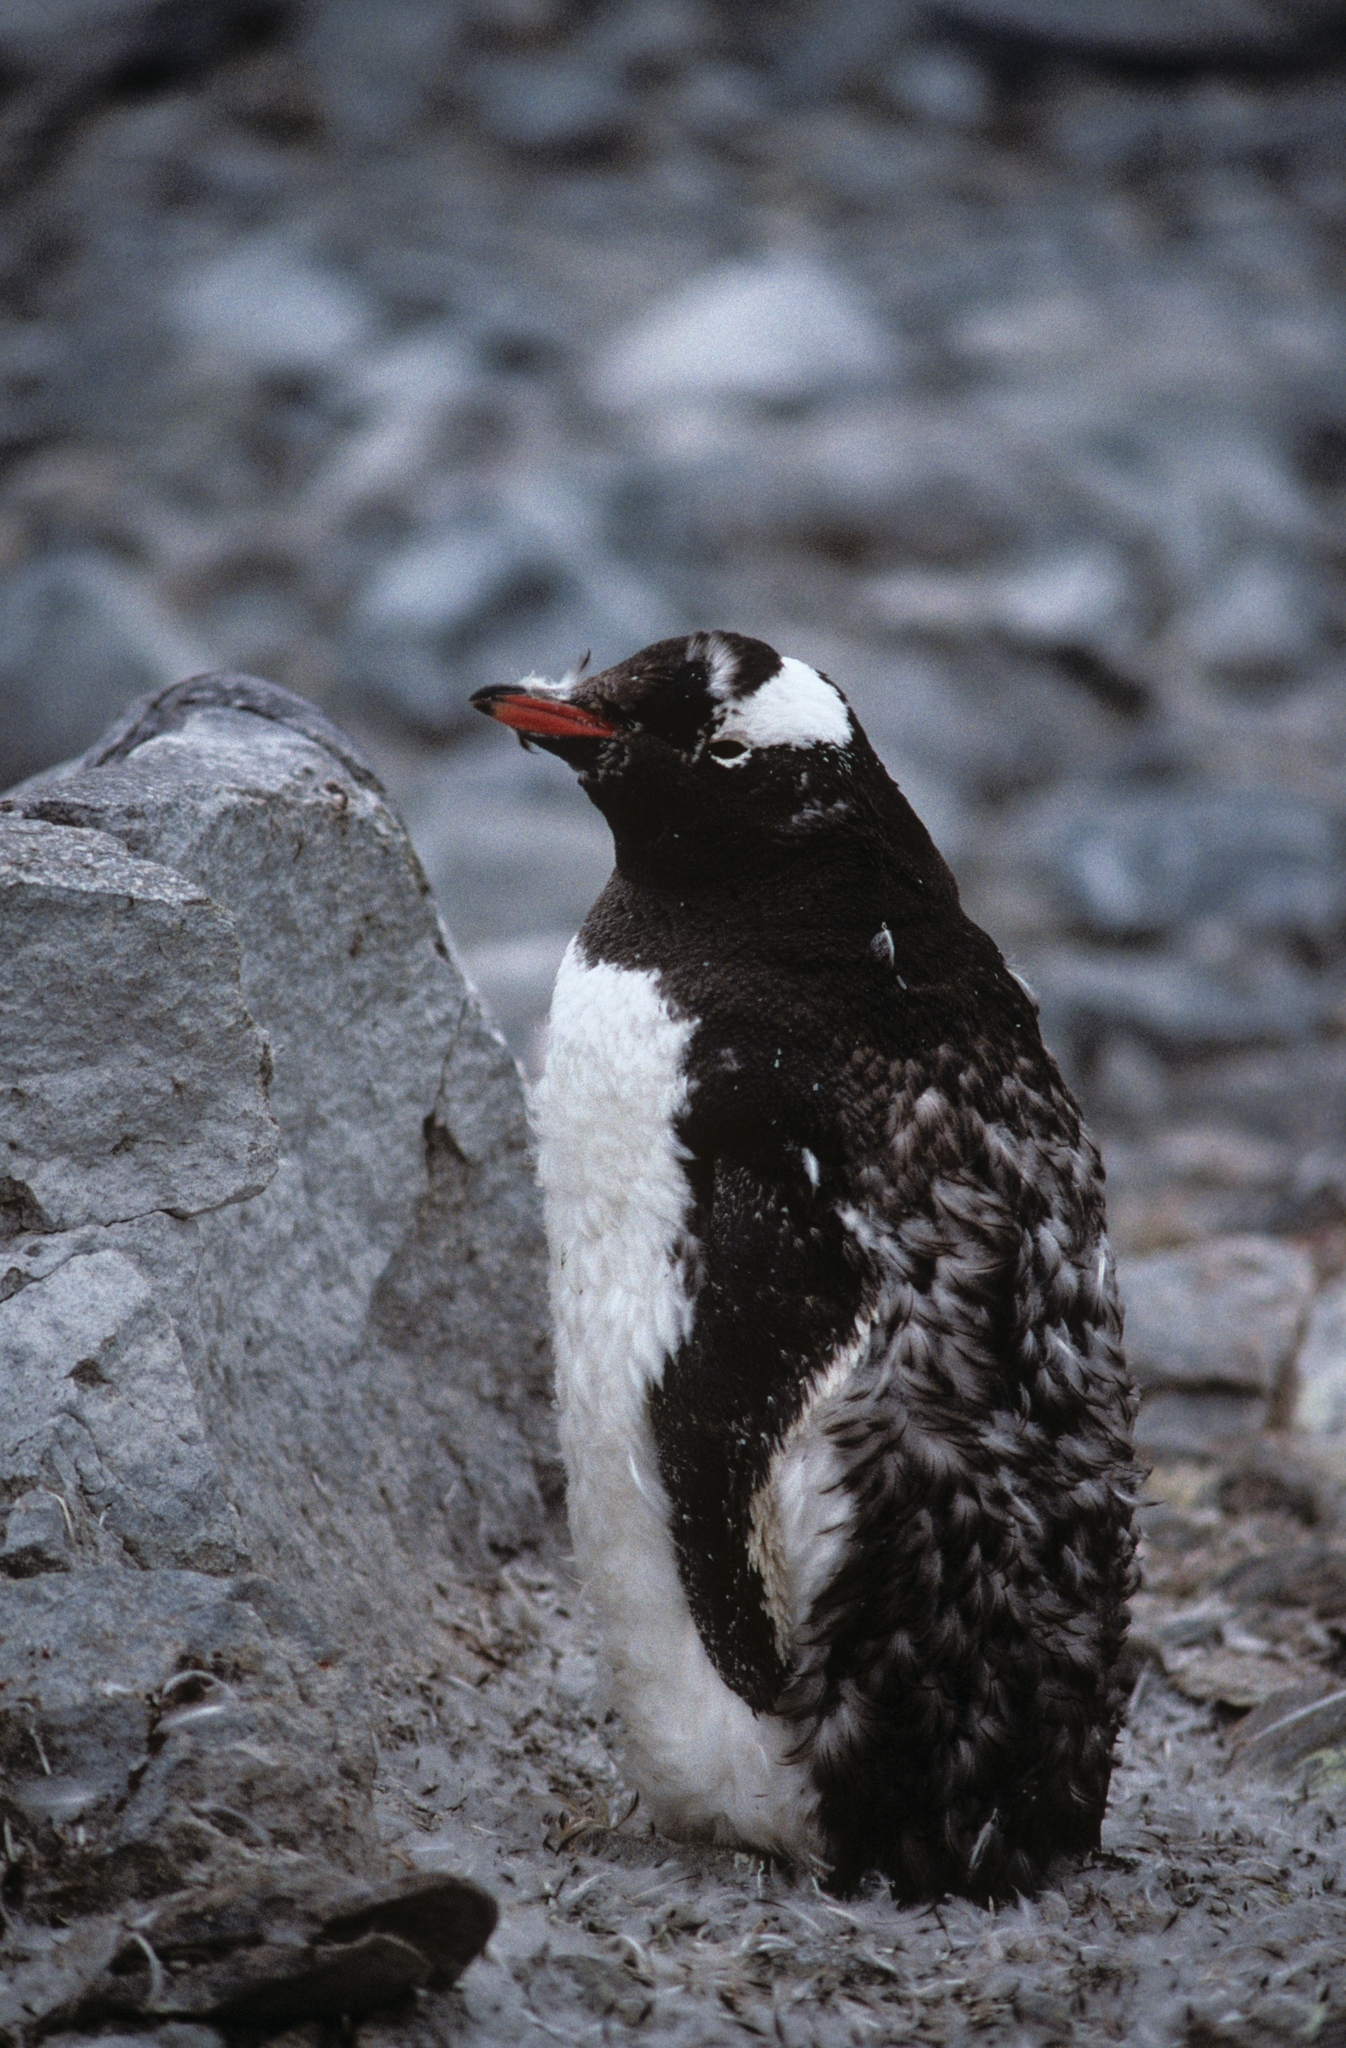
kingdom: Animalia
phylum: Chordata
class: Aves
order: Sphenisciformes
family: Spheniscidae
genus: Pygoscelis
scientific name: Pygoscelis papua
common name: Gentoo penguin
